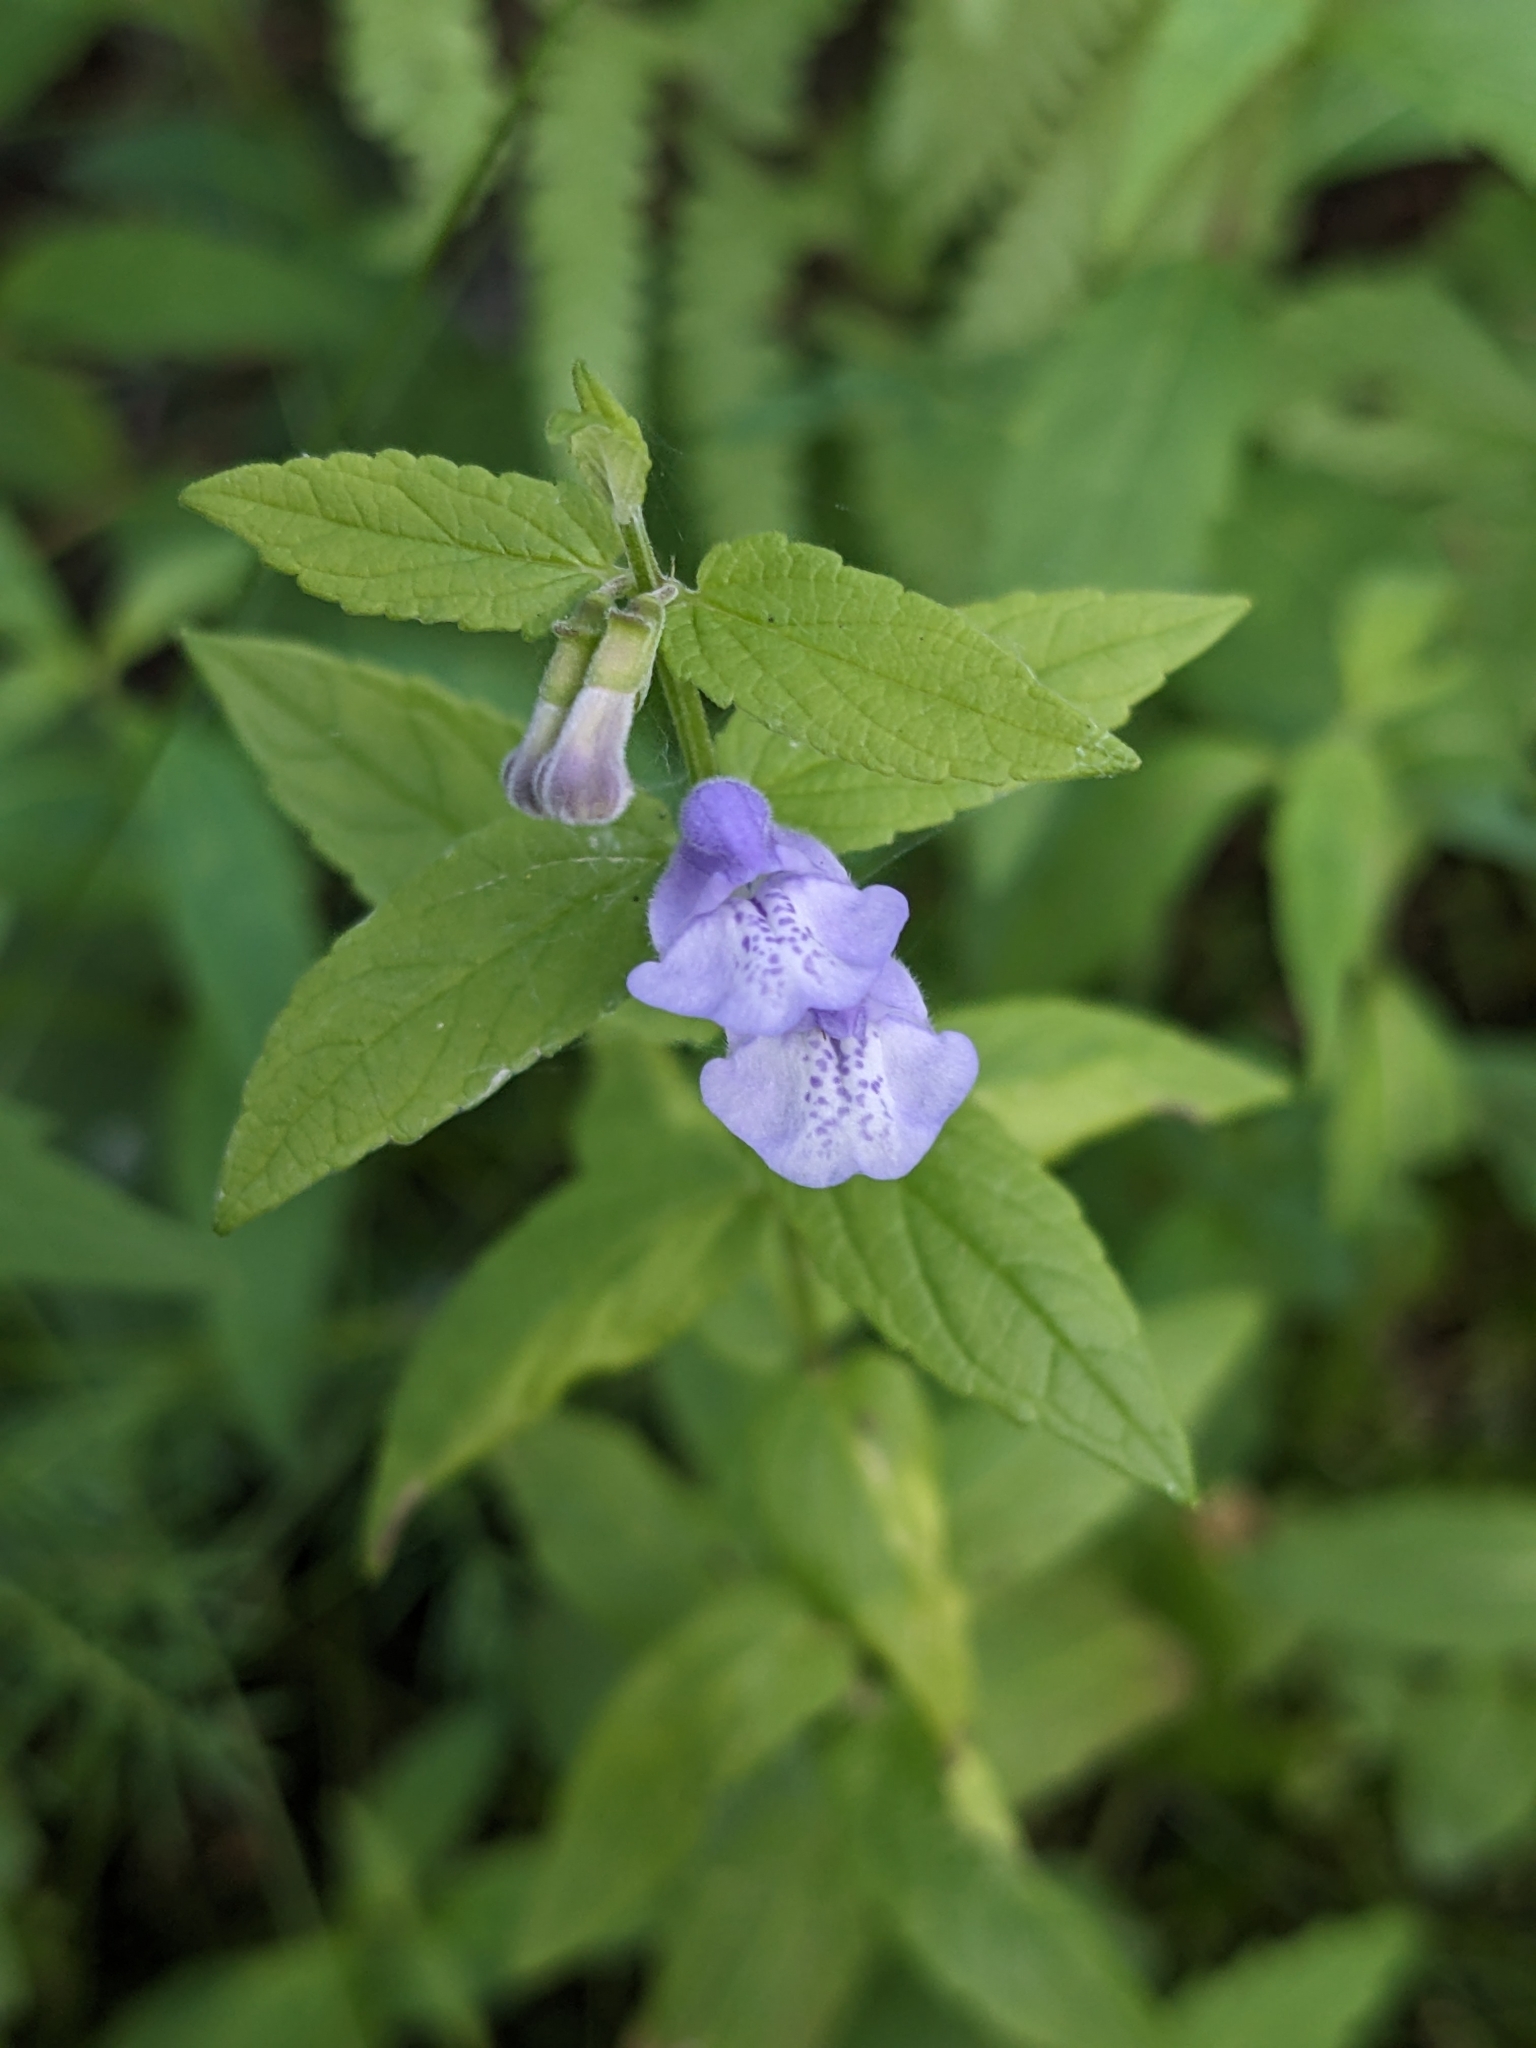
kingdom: Plantae
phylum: Tracheophyta
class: Magnoliopsida
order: Lamiales
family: Lamiaceae
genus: Scutellaria
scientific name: Scutellaria galericulata
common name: Skullcap
